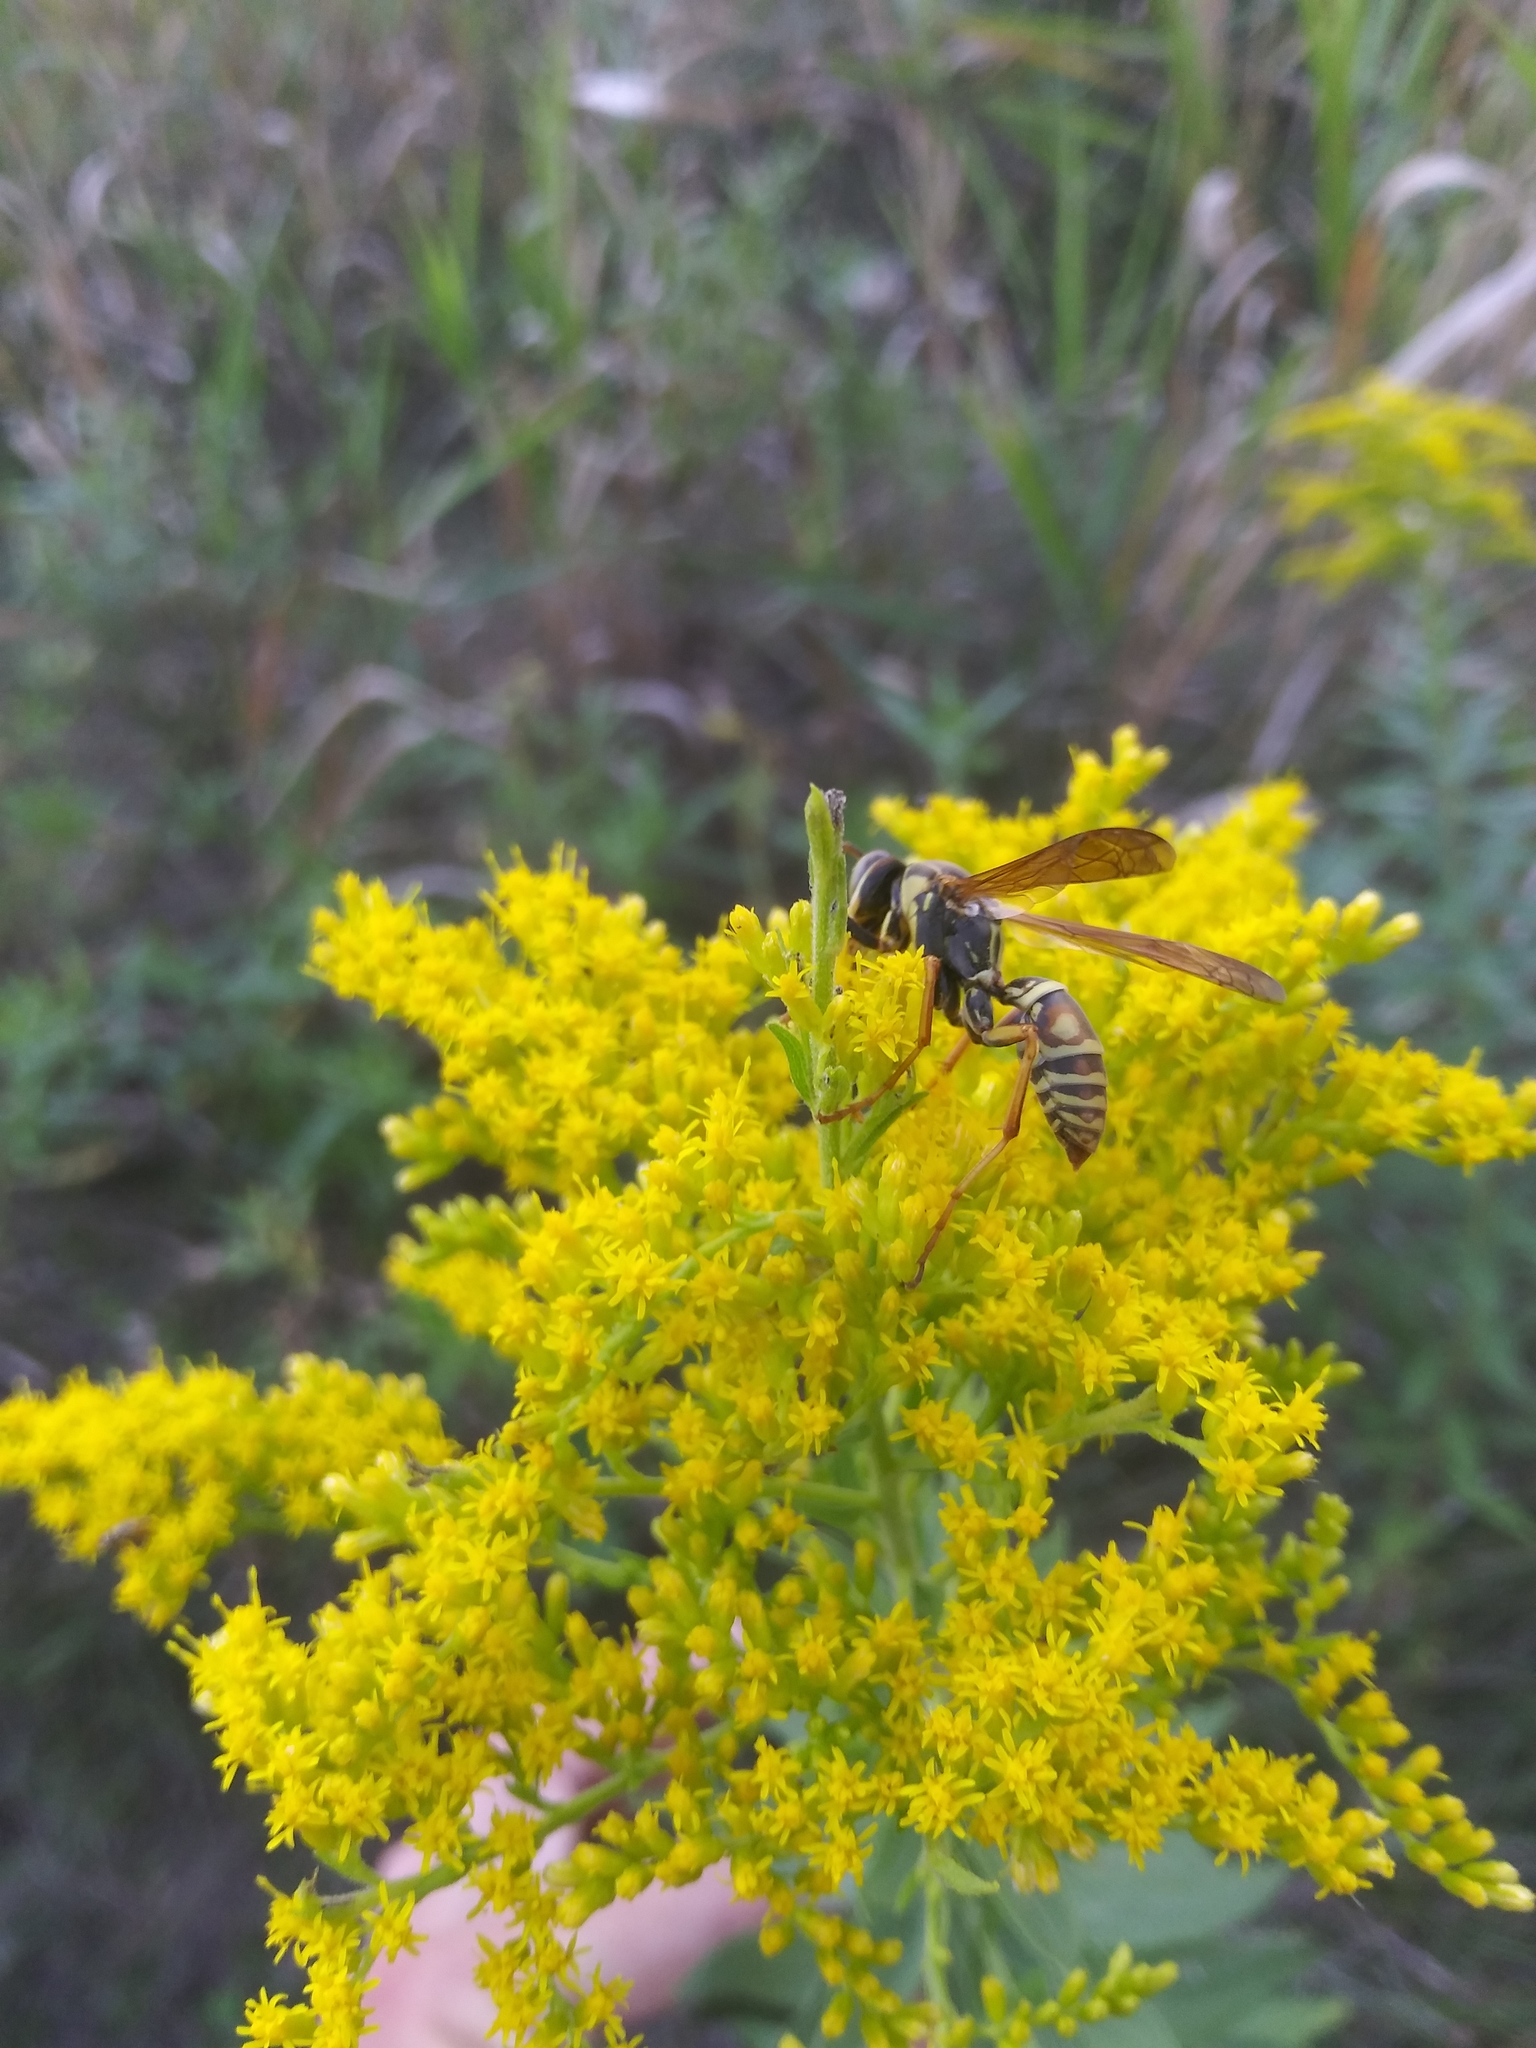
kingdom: Animalia
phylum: Arthropoda
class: Insecta
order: Hymenoptera
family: Eumenidae
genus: Polistes
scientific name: Polistes fuscatus
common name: Dark paper wasp
